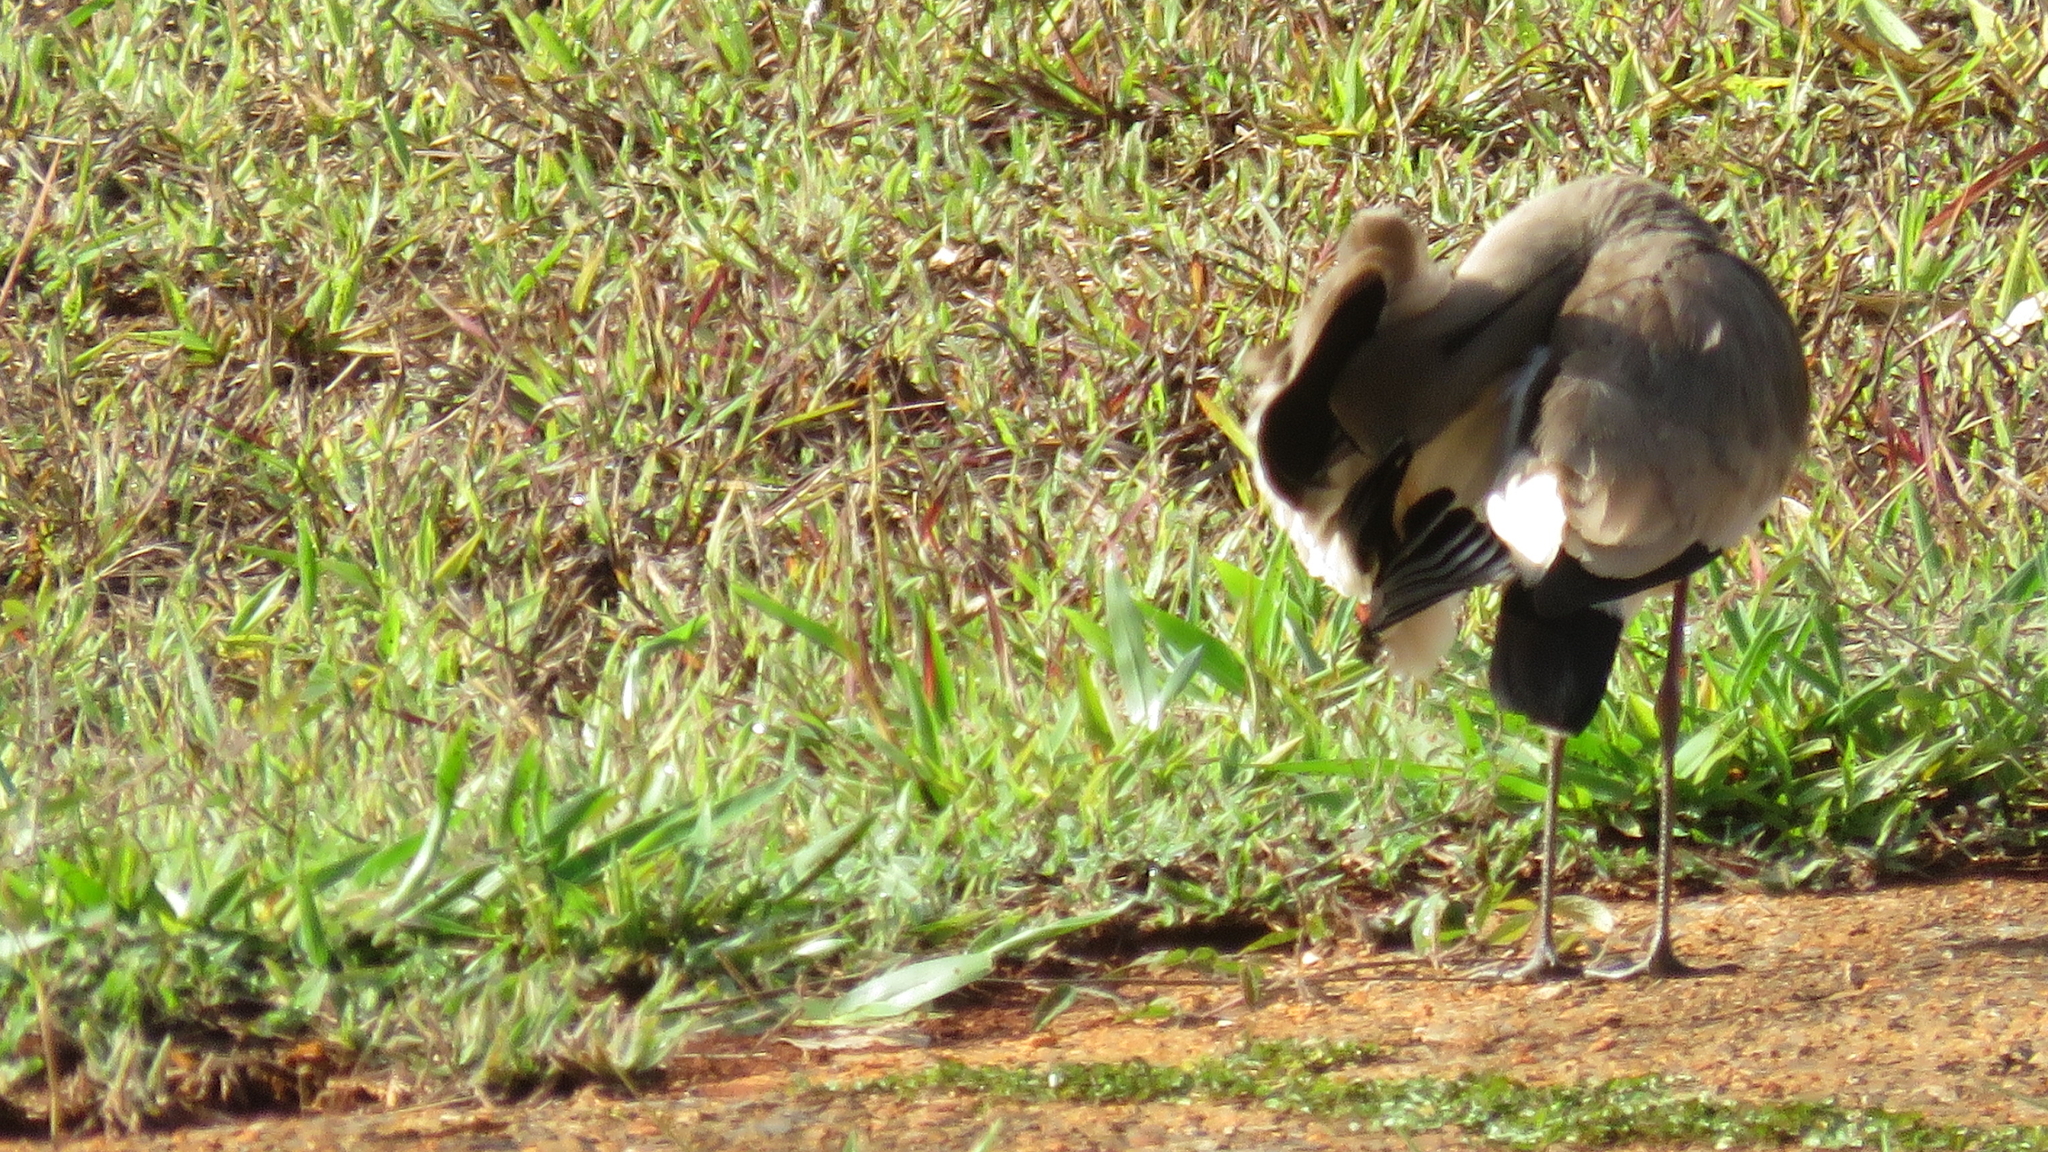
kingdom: Animalia
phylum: Chordata
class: Aves
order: Charadriiformes
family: Charadriidae
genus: Vanellus
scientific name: Vanellus chilensis
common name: Southern lapwing
